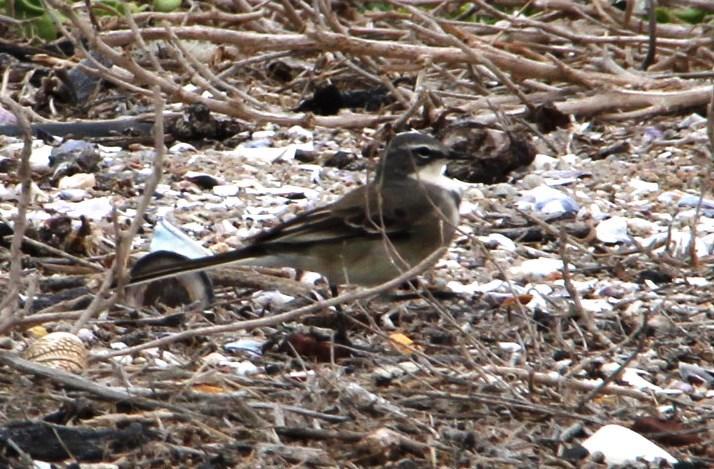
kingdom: Animalia
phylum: Chordata
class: Aves
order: Passeriformes
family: Motacillidae
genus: Motacilla
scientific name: Motacilla capensis
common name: Cape wagtail
